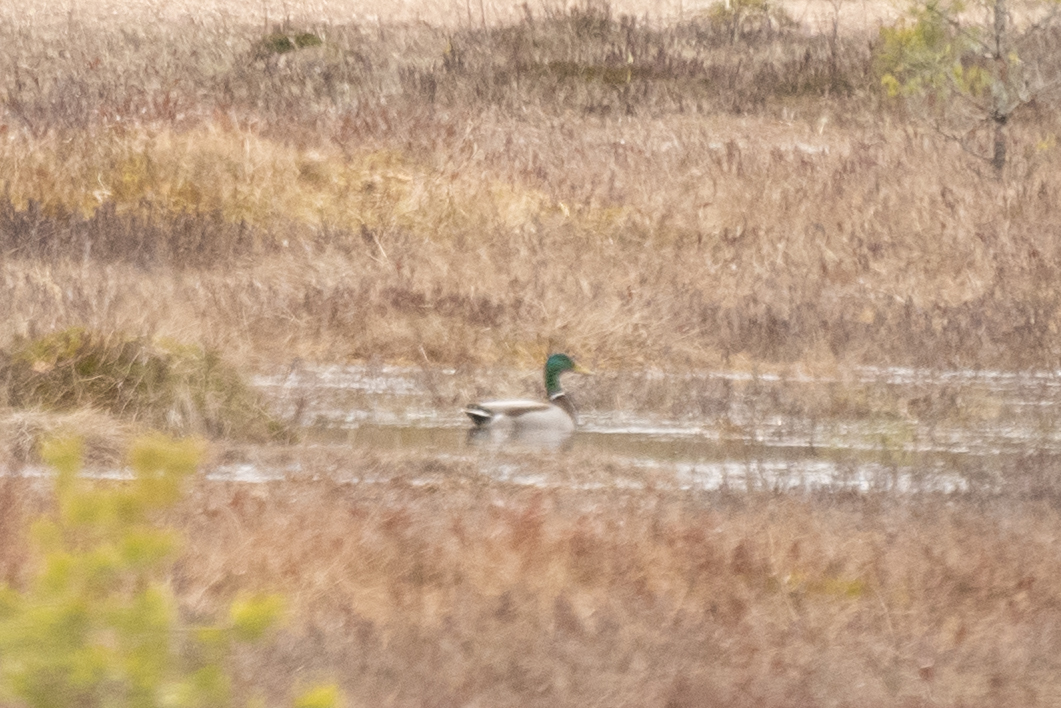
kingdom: Animalia
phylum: Chordata
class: Aves
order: Anseriformes
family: Anatidae
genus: Anas
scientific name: Anas platyrhynchos
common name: Mallard
